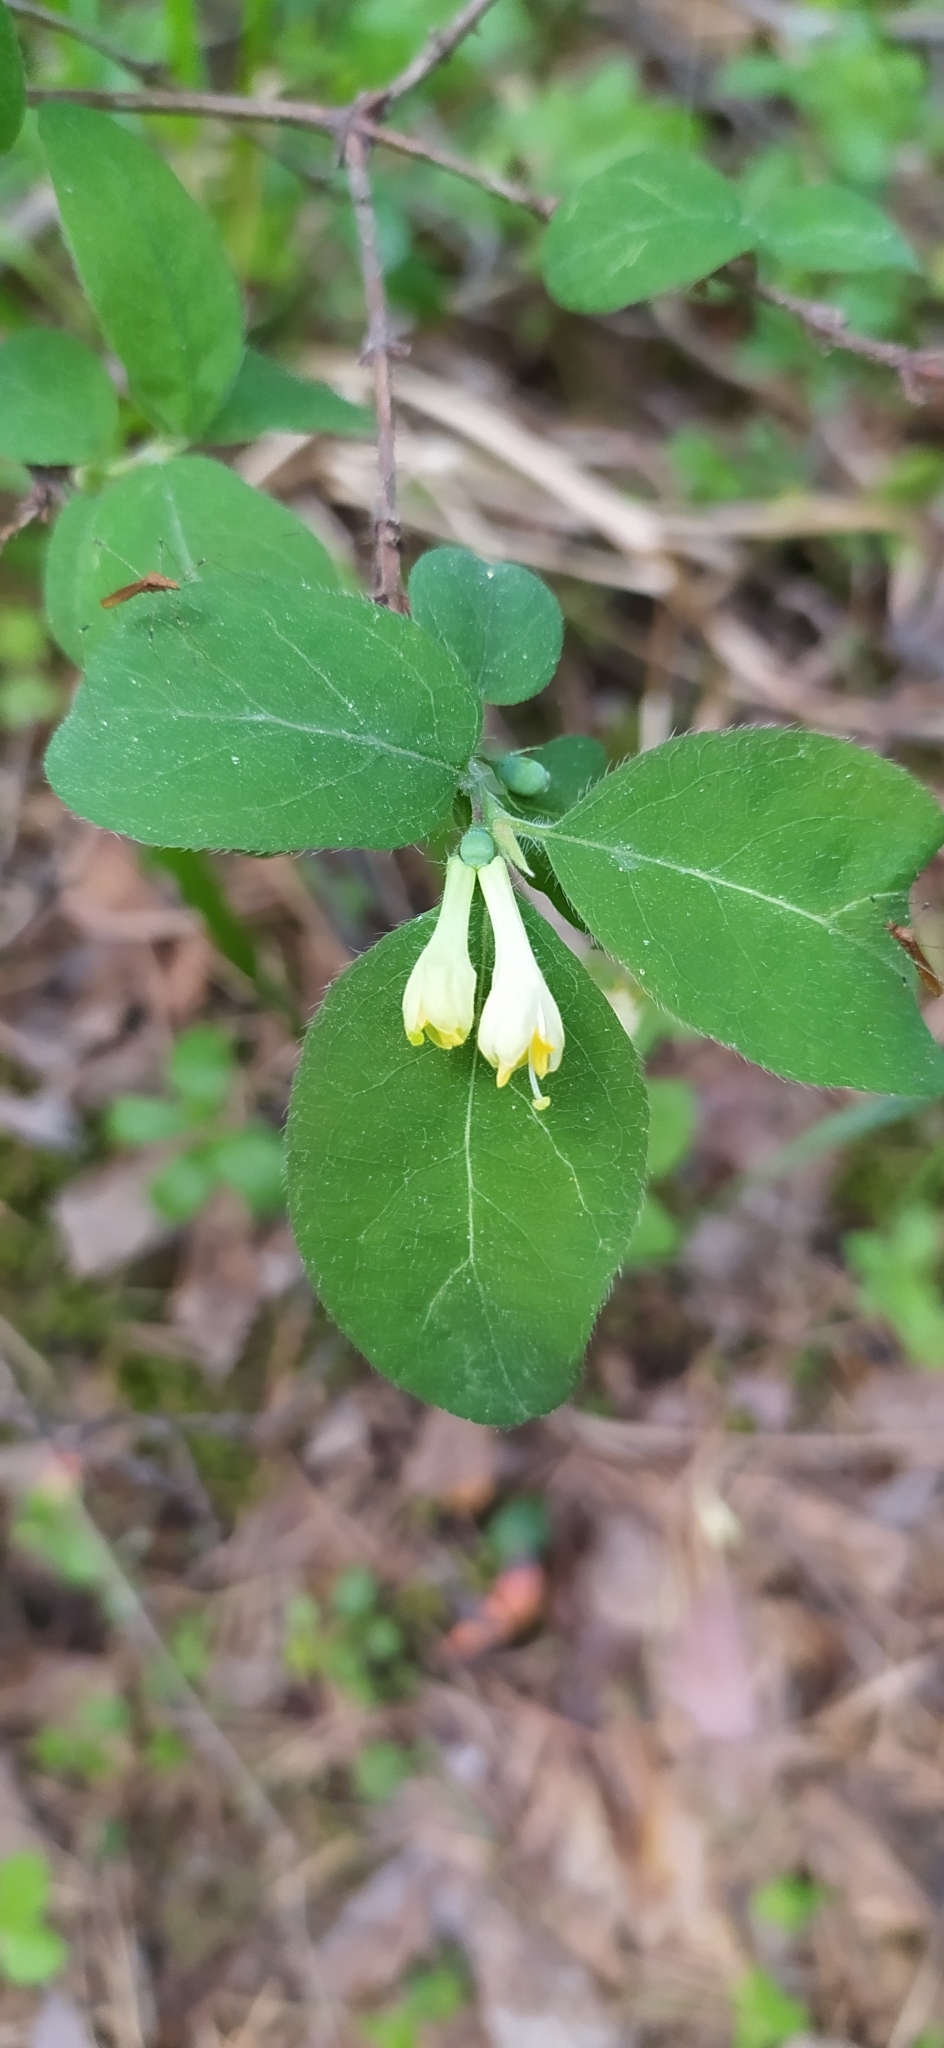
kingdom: Plantae
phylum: Tracheophyta
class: Magnoliopsida
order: Dipsacales
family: Caprifoliaceae
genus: Lonicera
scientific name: Lonicera caerulea
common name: Blue honeysuckle
